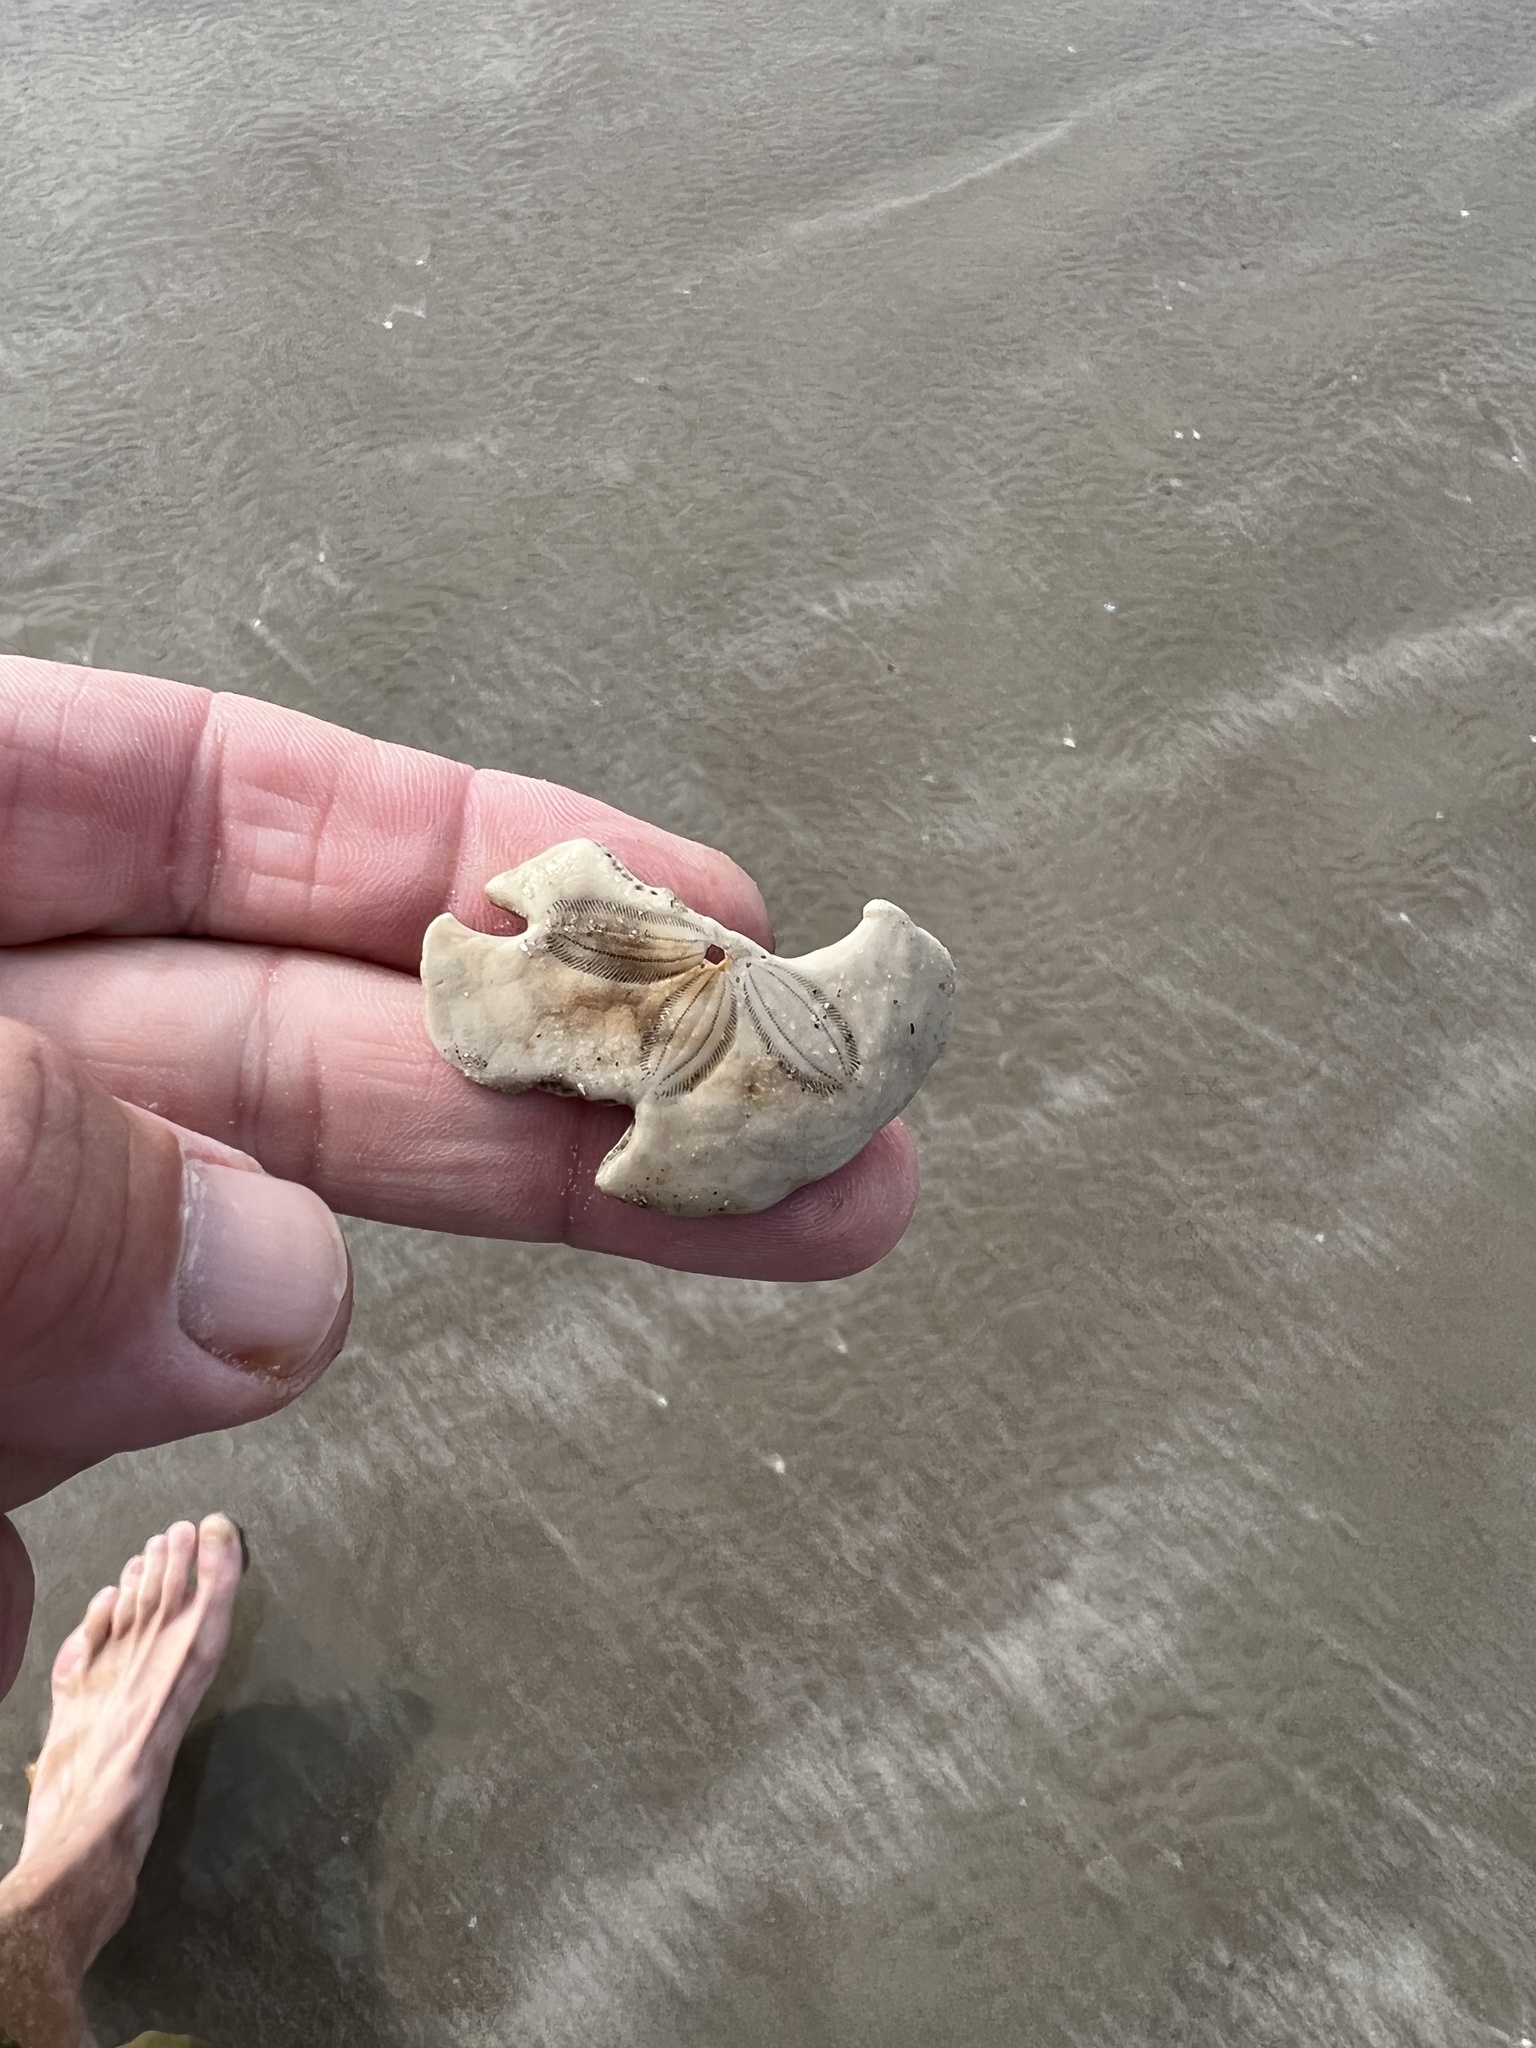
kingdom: Animalia
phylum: Echinodermata
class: Echinoidea
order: Echinolampadacea
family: Mellitidae
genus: Mellita
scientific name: Mellita quinquiesperforata
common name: Sand dollar
